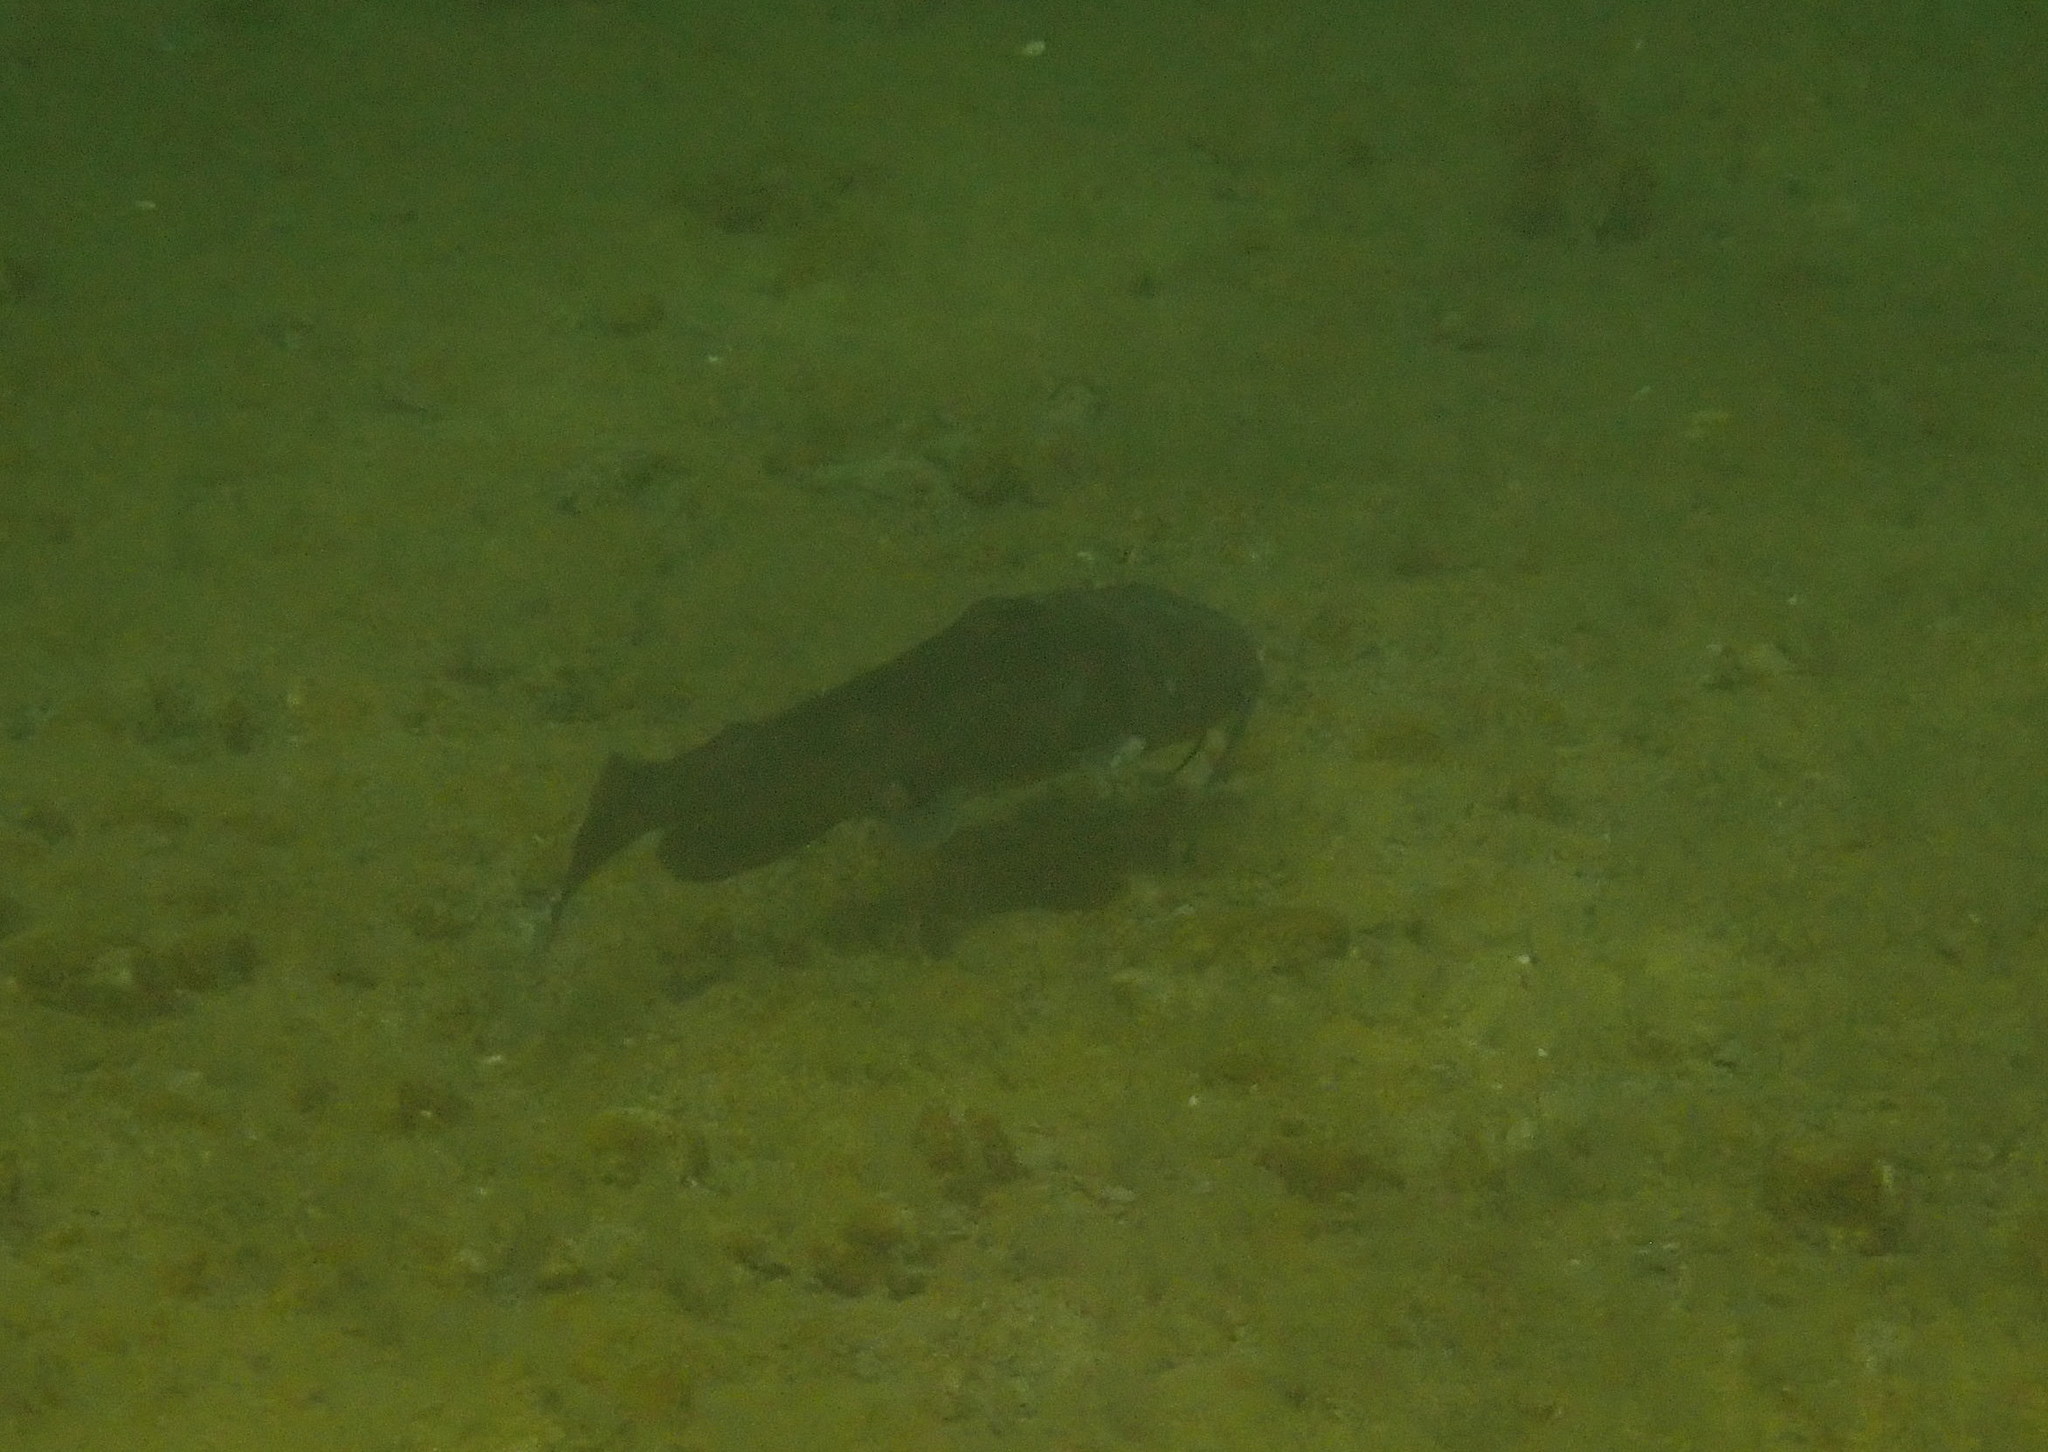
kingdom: Animalia
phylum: Chordata
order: Siluriformes
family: Ictaluridae
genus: Ictalurus
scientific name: Ictalurus punctatus
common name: Channel catfish
